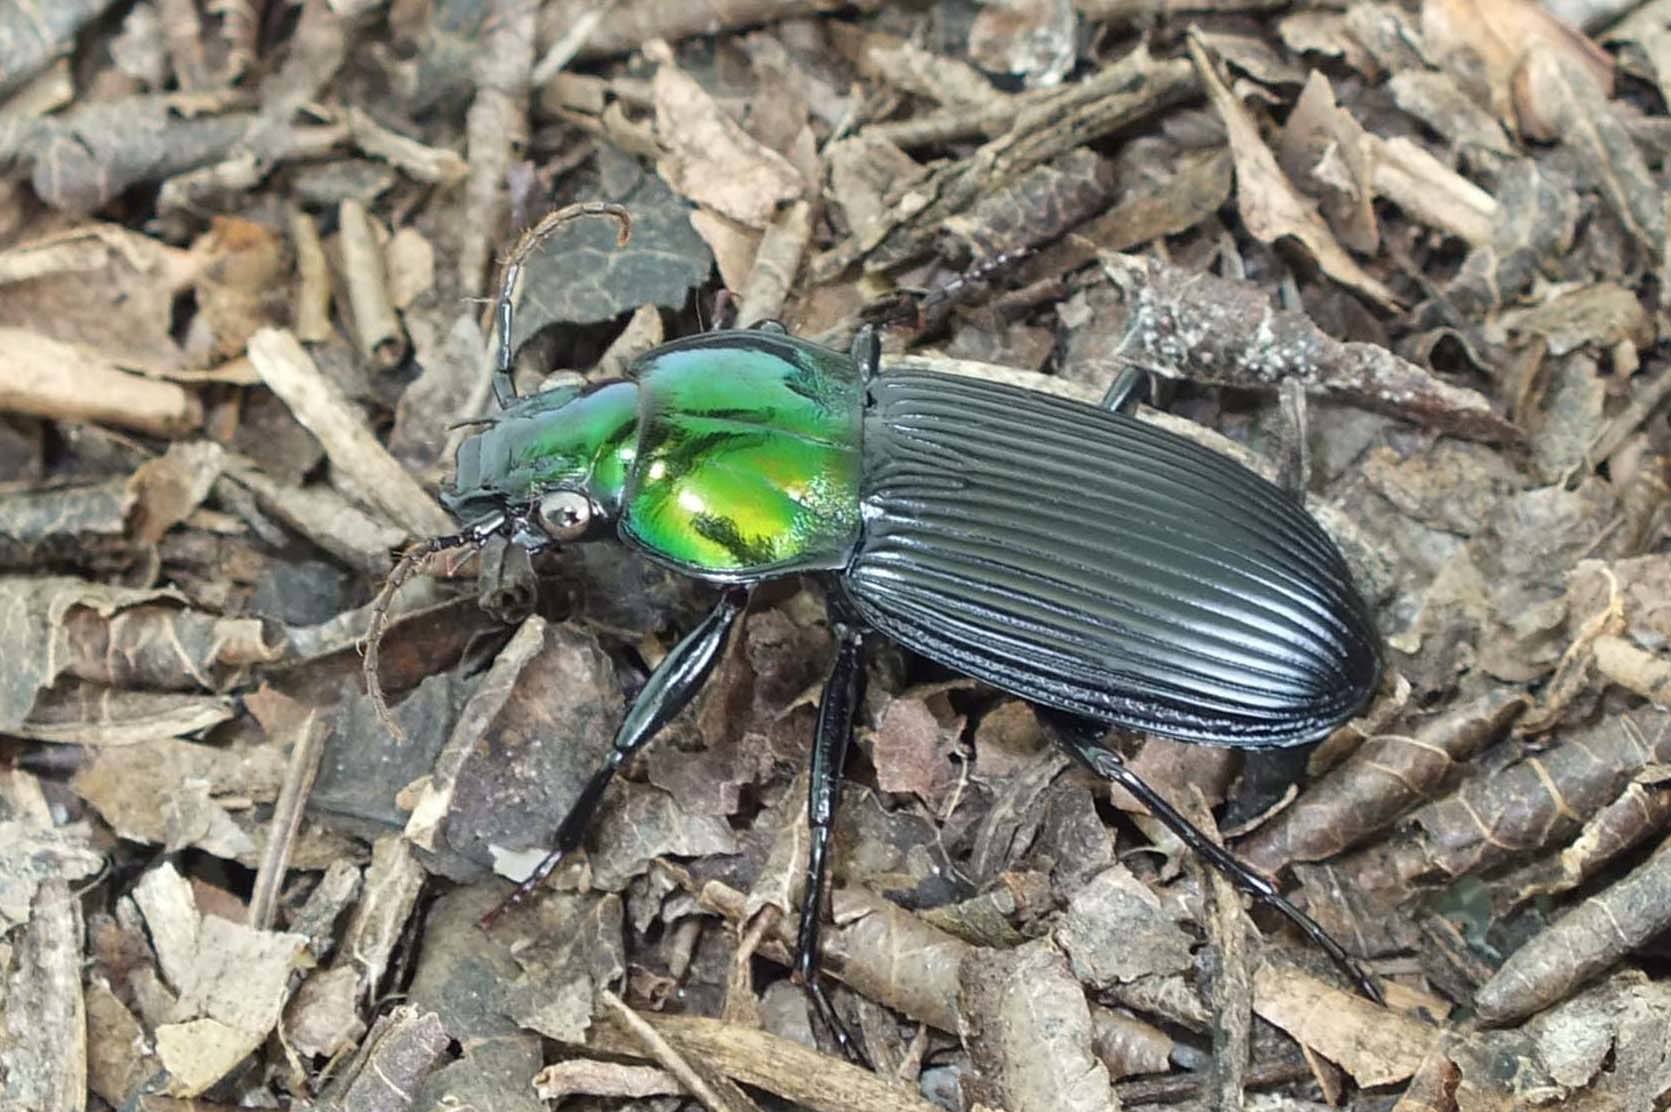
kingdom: Animalia
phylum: Arthropoda
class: Insecta
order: Coleoptera
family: Carabidae
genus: Lesticus
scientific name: Lesticus nubilus
